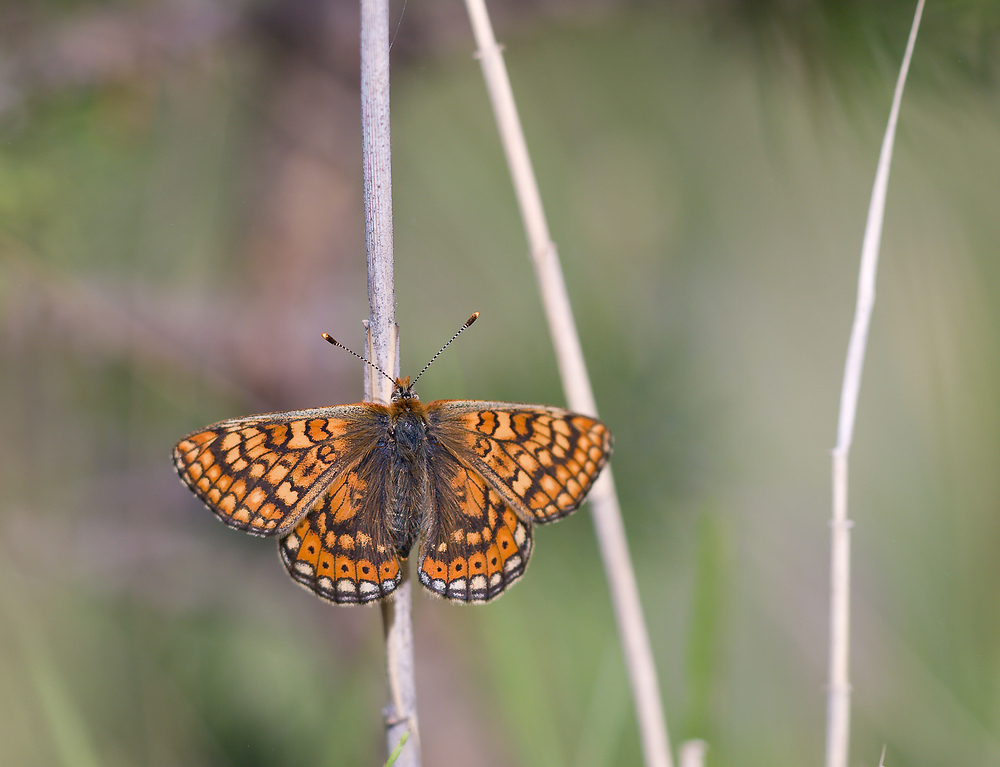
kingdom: Animalia
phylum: Arthropoda
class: Insecta
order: Lepidoptera
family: Nymphalidae
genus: Euphydryas
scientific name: Euphydryas aurinia
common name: Marsh fritillary
